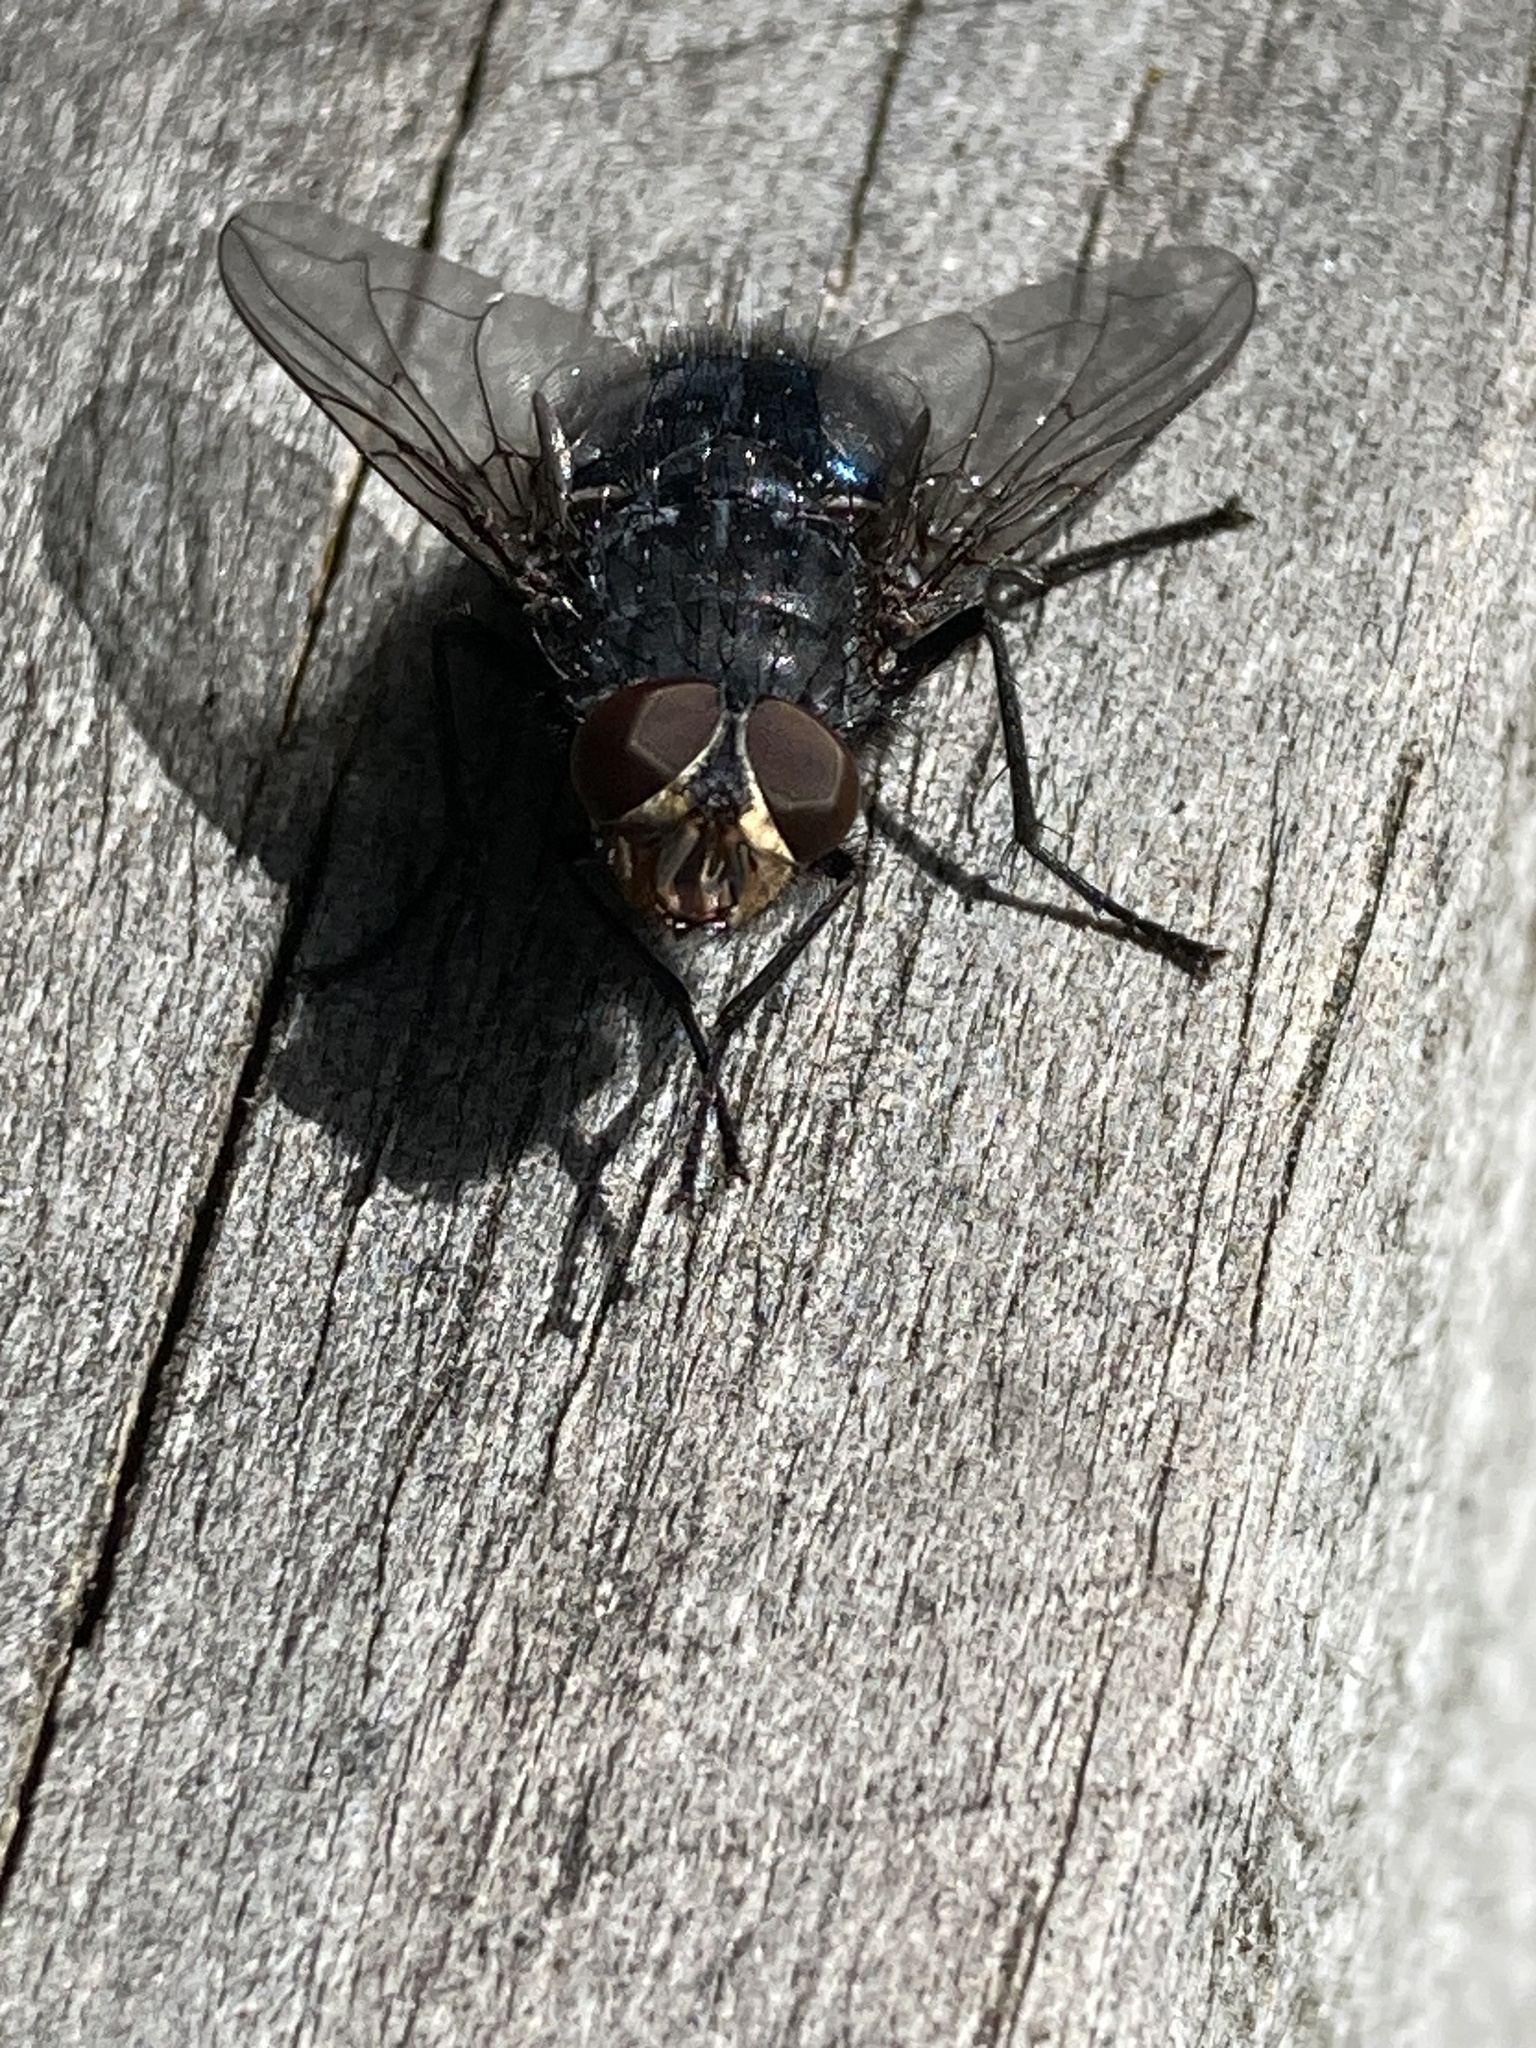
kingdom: Animalia
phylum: Arthropoda
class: Insecta
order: Diptera
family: Calliphoridae
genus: Calliphora
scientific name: Calliphora vicina
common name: Common blow flie
